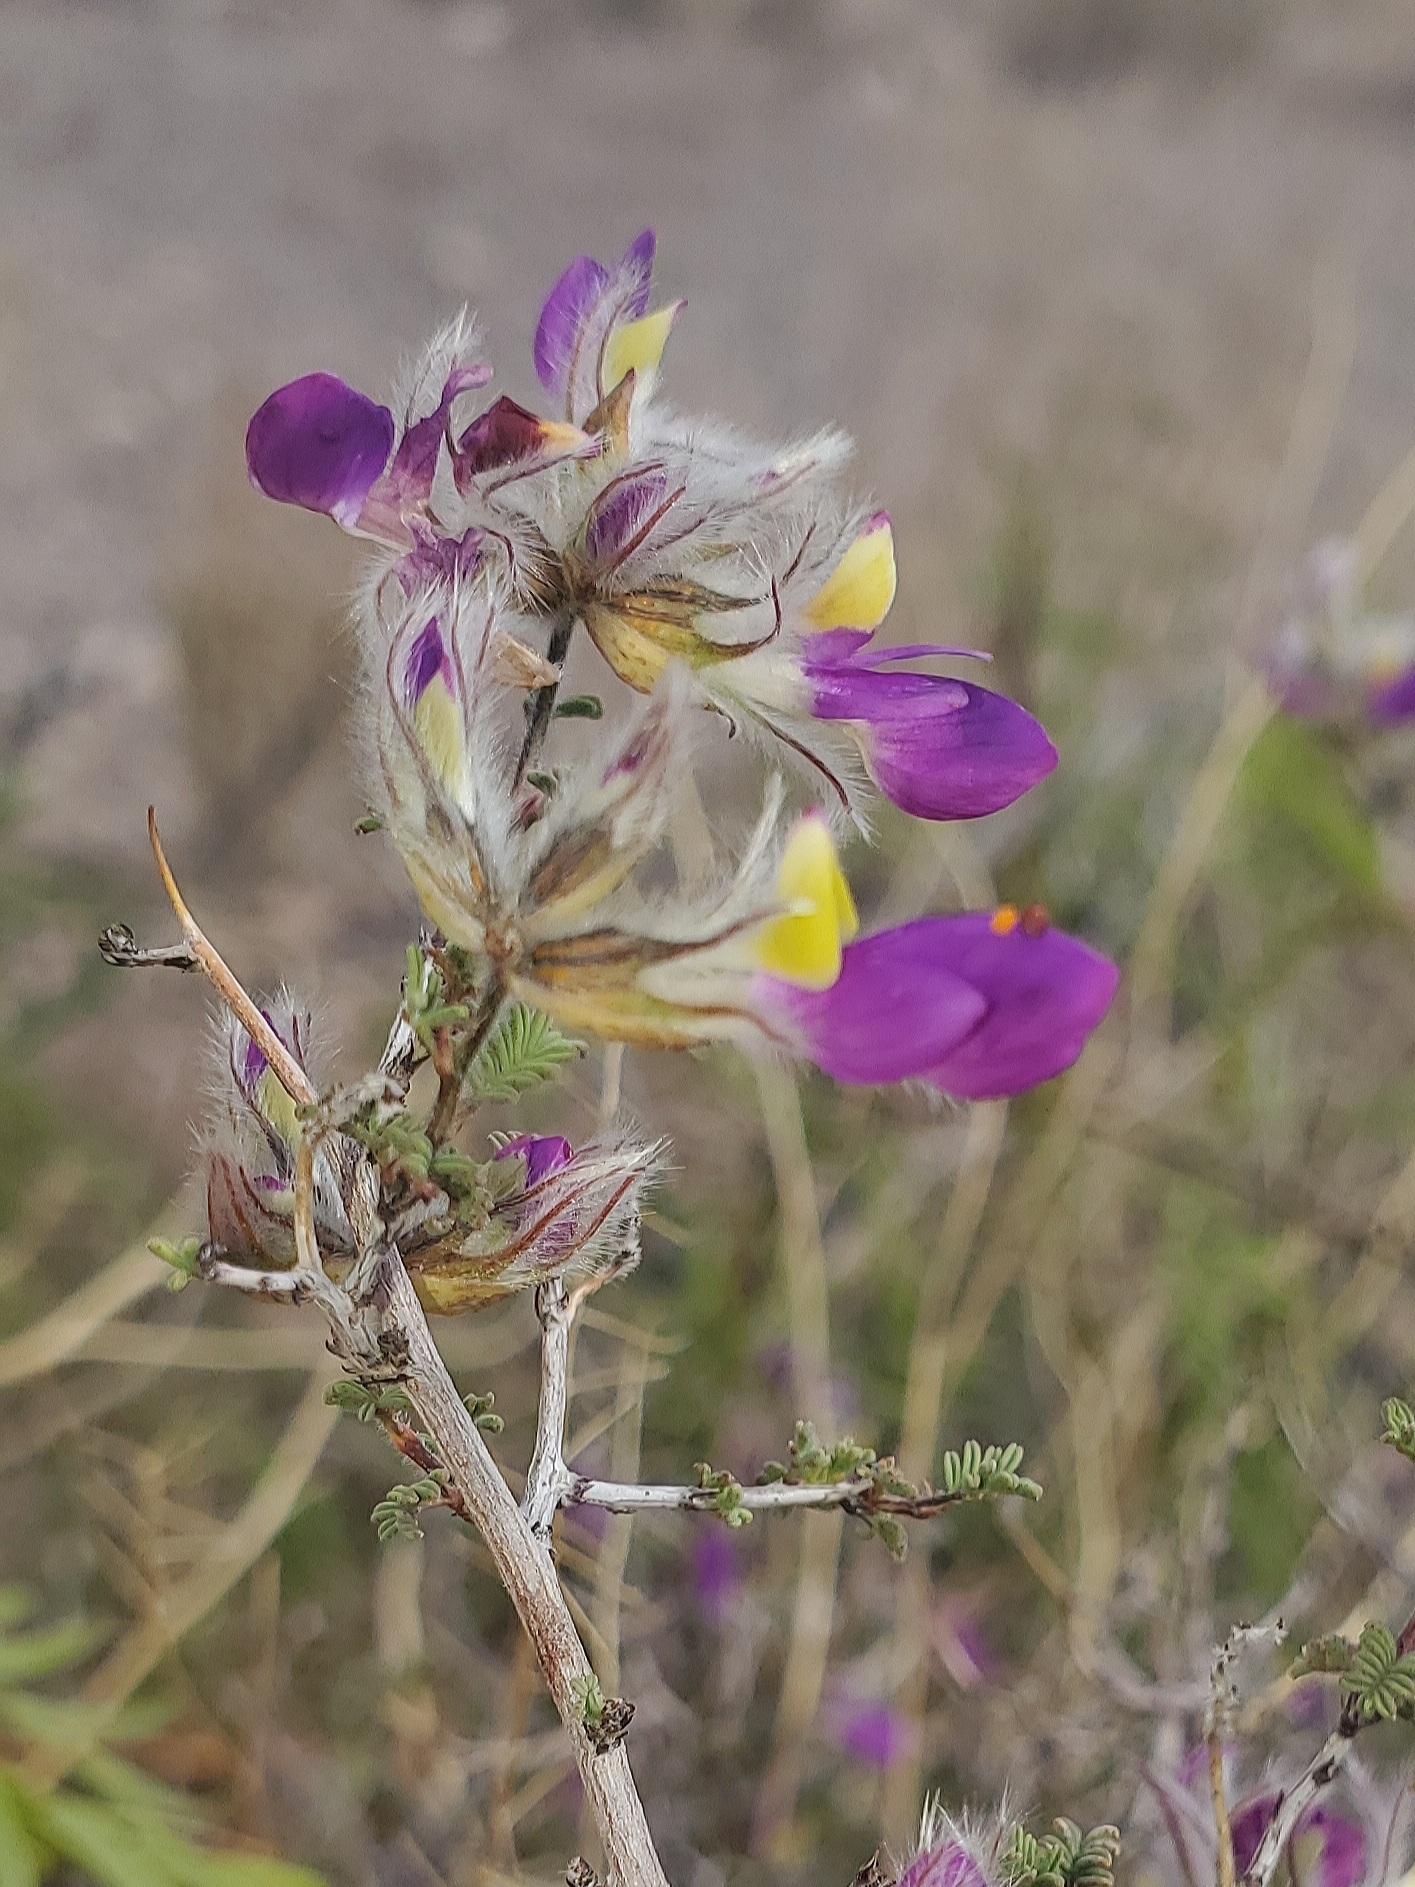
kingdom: Plantae
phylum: Tracheophyta
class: Magnoliopsida
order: Fabales
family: Fabaceae
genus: Dalea
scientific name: Dalea formosa
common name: Feather-plume dalea
